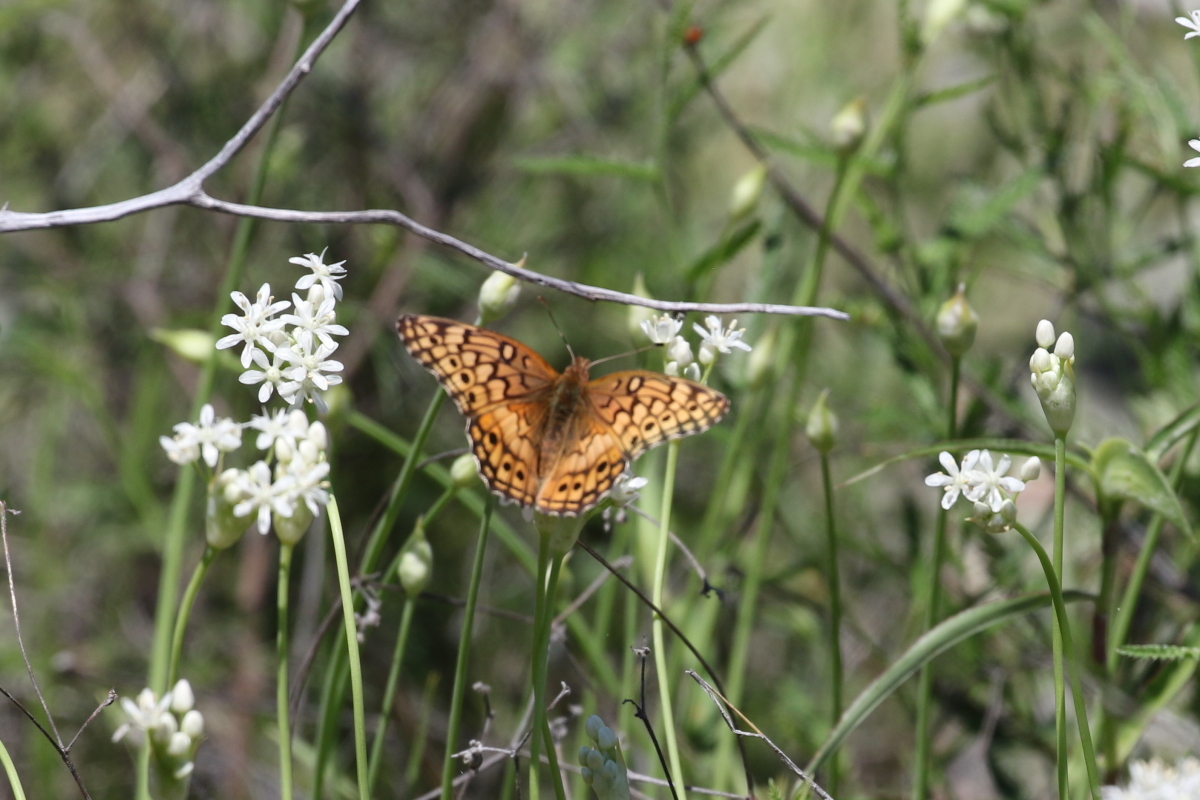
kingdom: Animalia
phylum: Arthropoda
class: Insecta
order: Lepidoptera
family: Nymphalidae
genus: Euptoieta
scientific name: Euptoieta claudia
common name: Variegated fritillary
